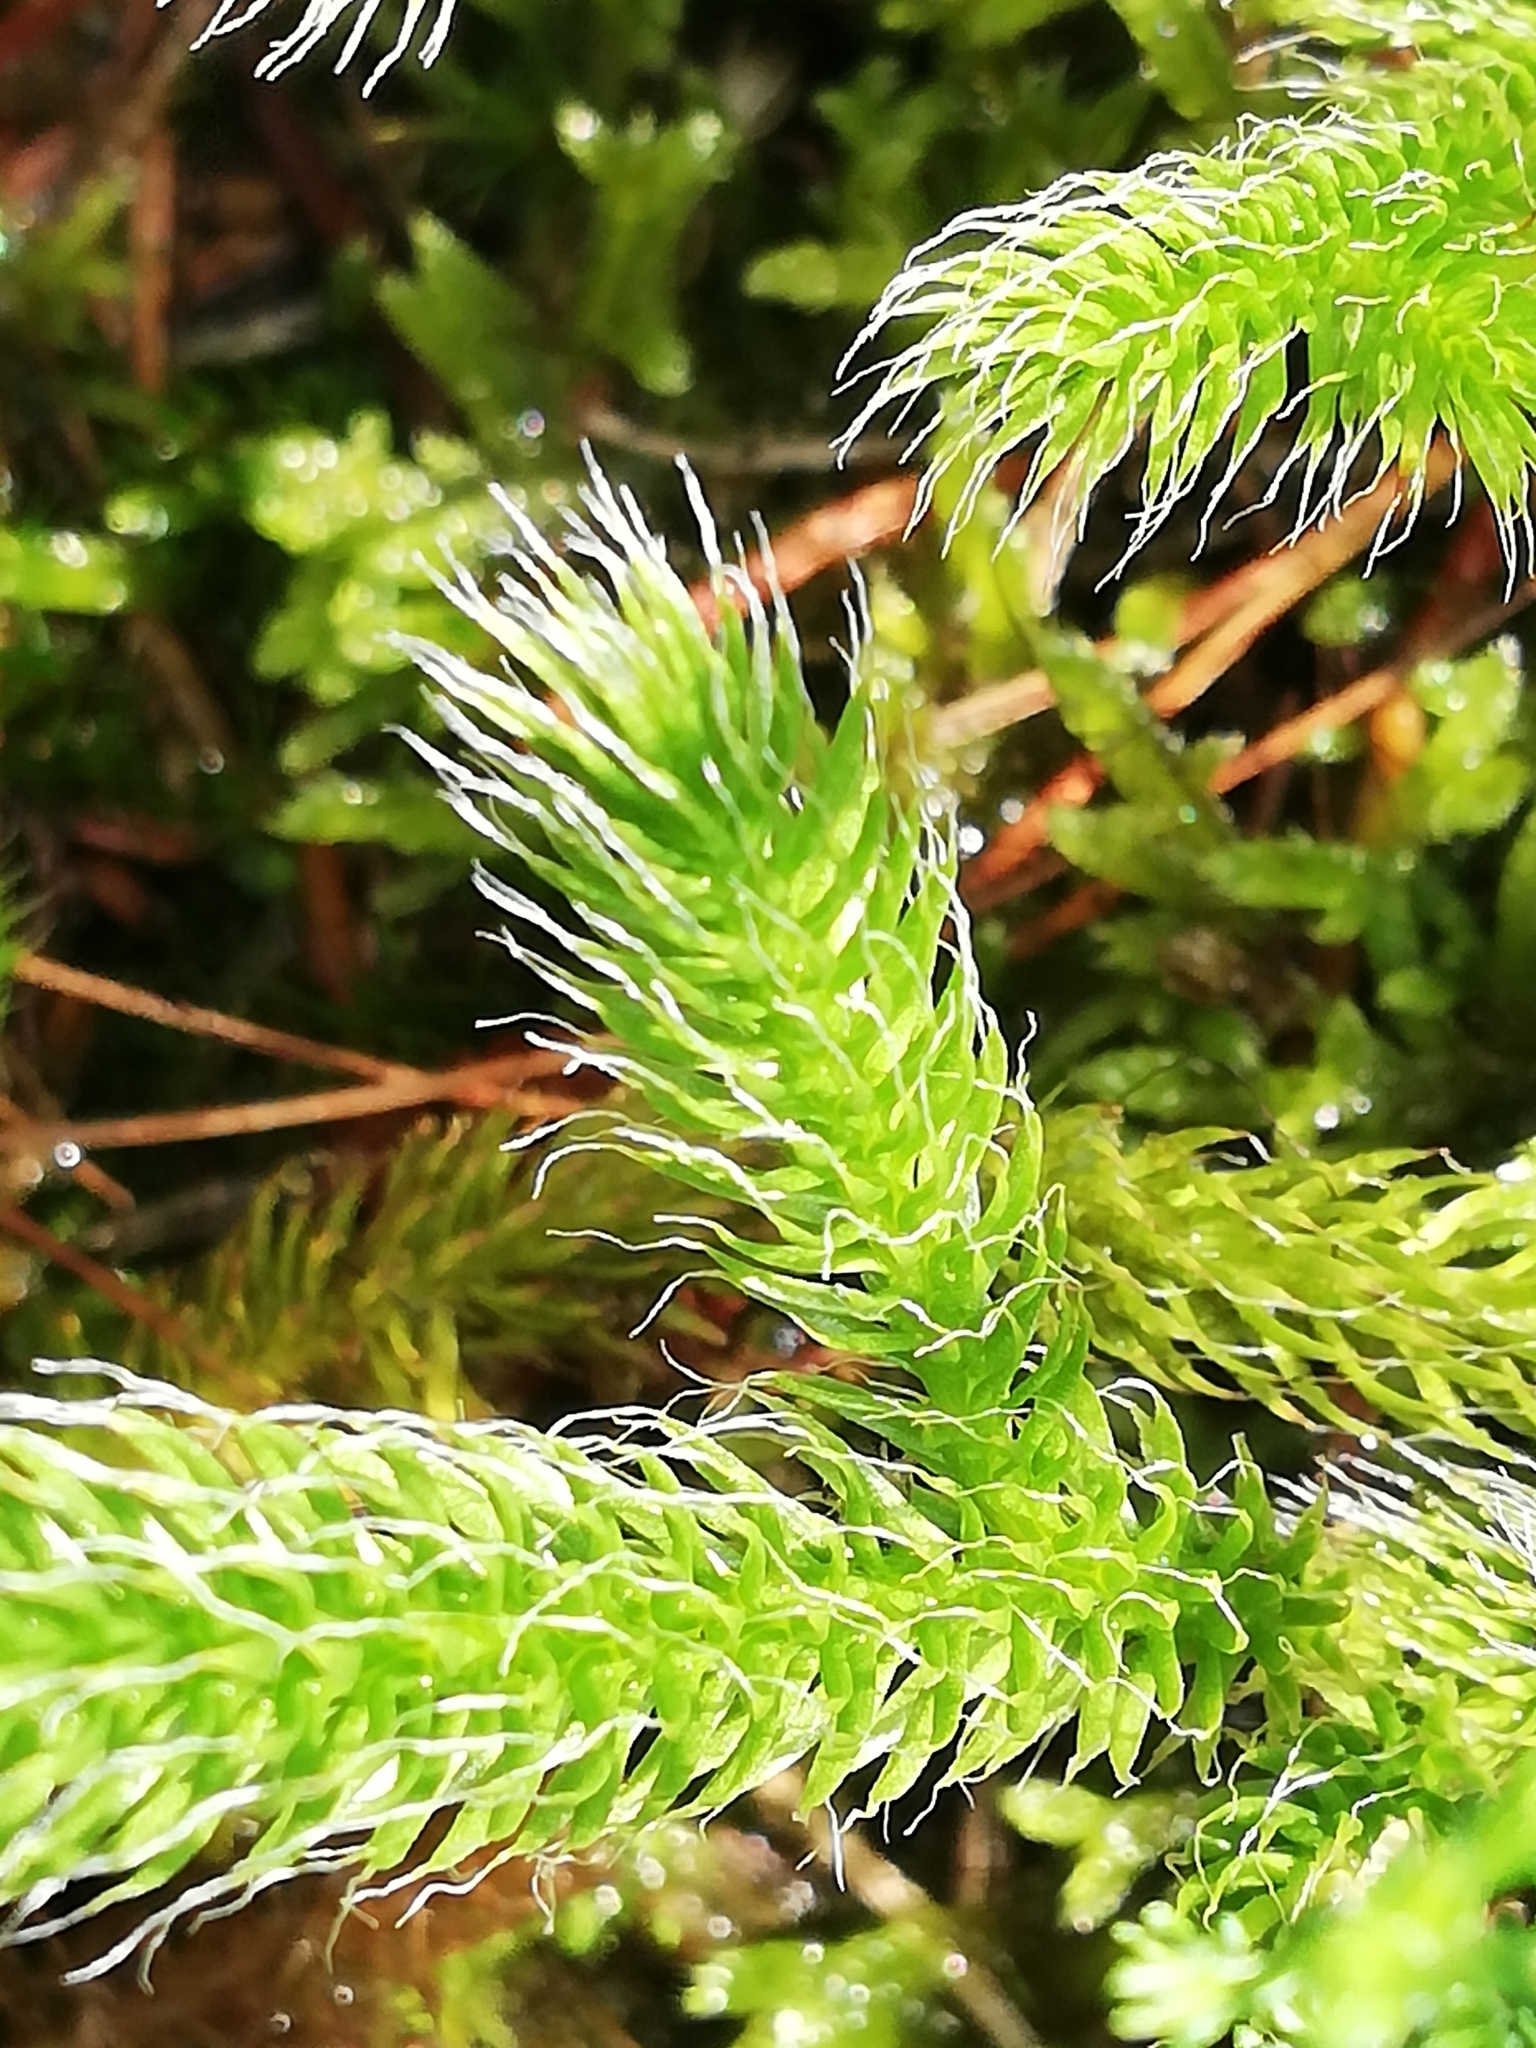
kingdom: Plantae
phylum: Tracheophyta
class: Lycopodiopsida
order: Lycopodiales
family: Lycopodiaceae
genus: Lycopodium
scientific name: Lycopodium clavatum
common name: Stag's-horn clubmoss
